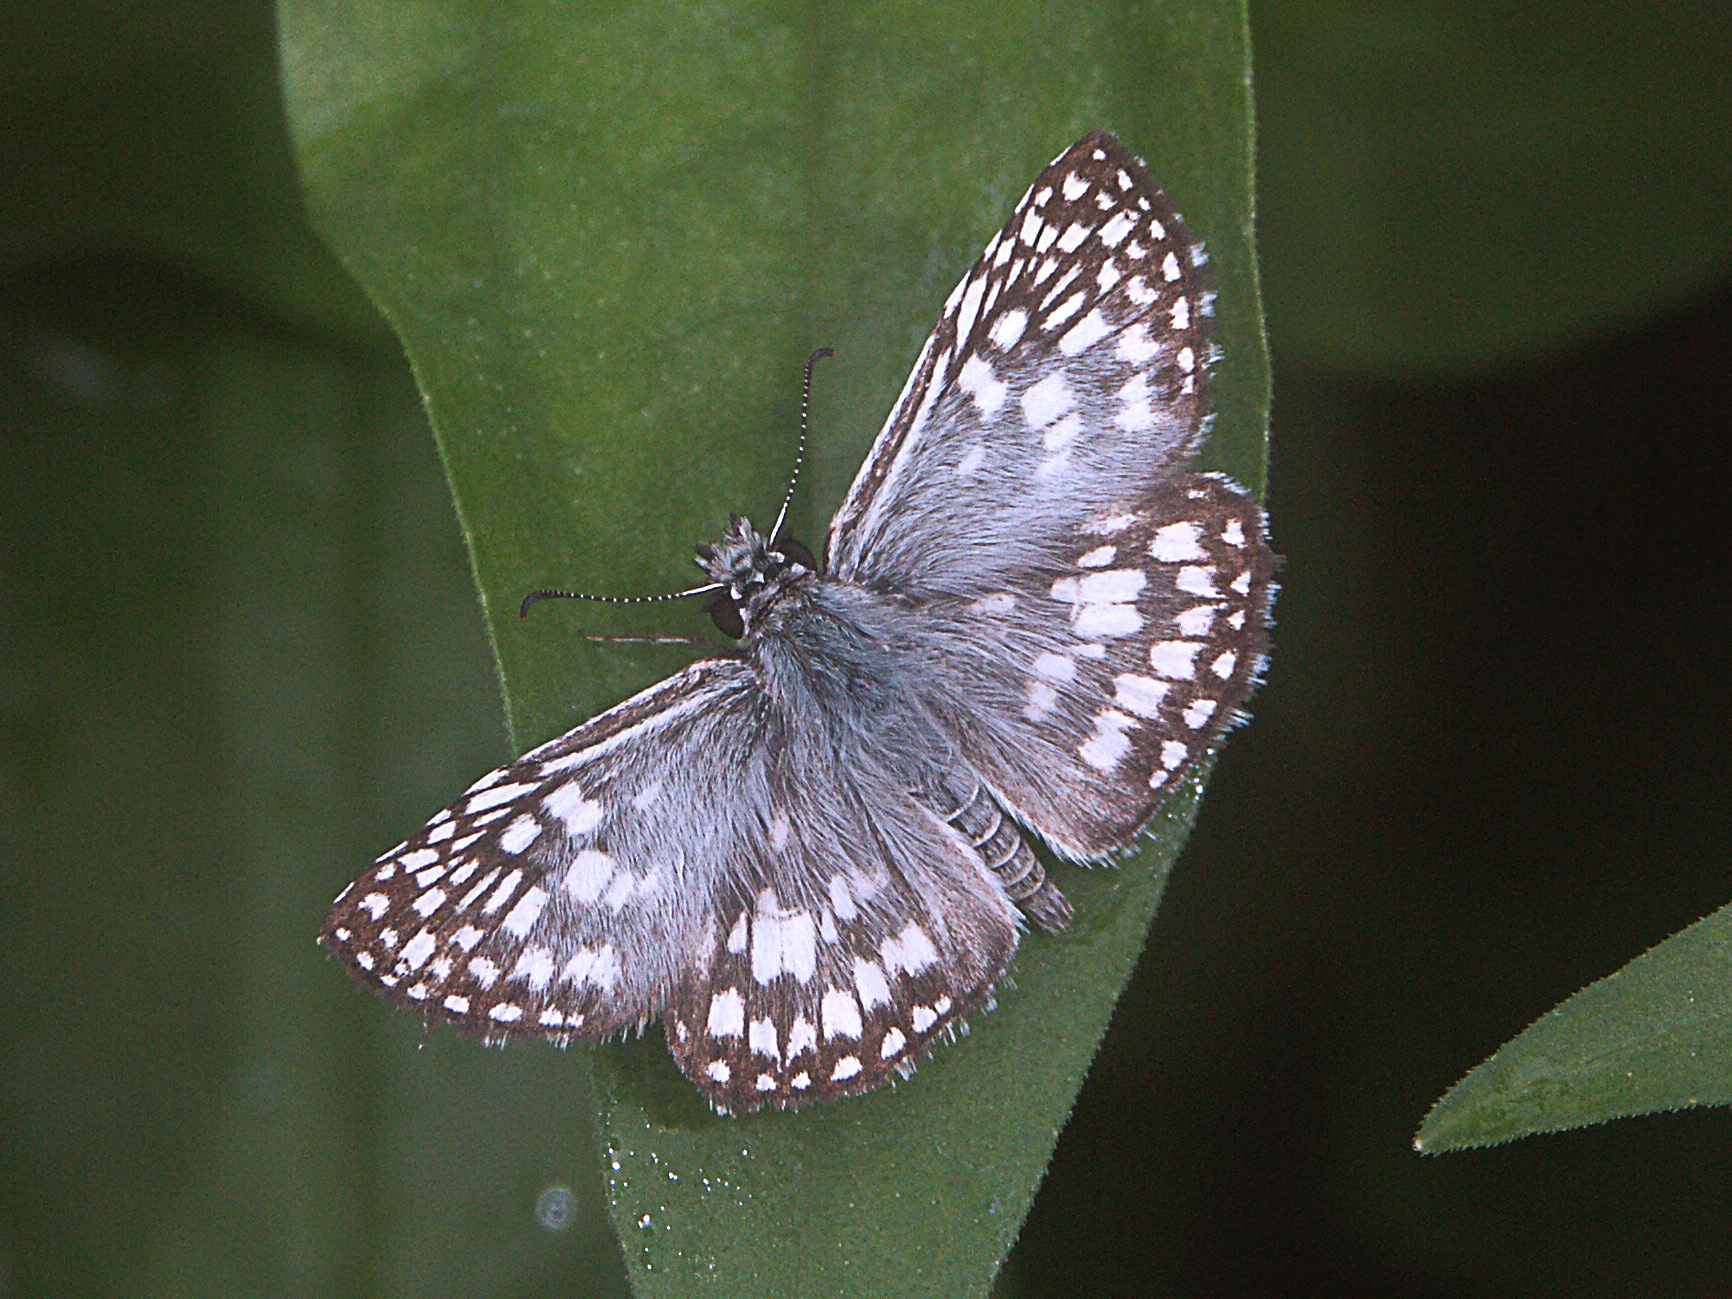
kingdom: Animalia
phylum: Arthropoda
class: Insecta
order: Lepidoptera
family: Hesperiidae
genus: Pyrgus
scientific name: Pyrgus oileus
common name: Tropical checkered-skipper
